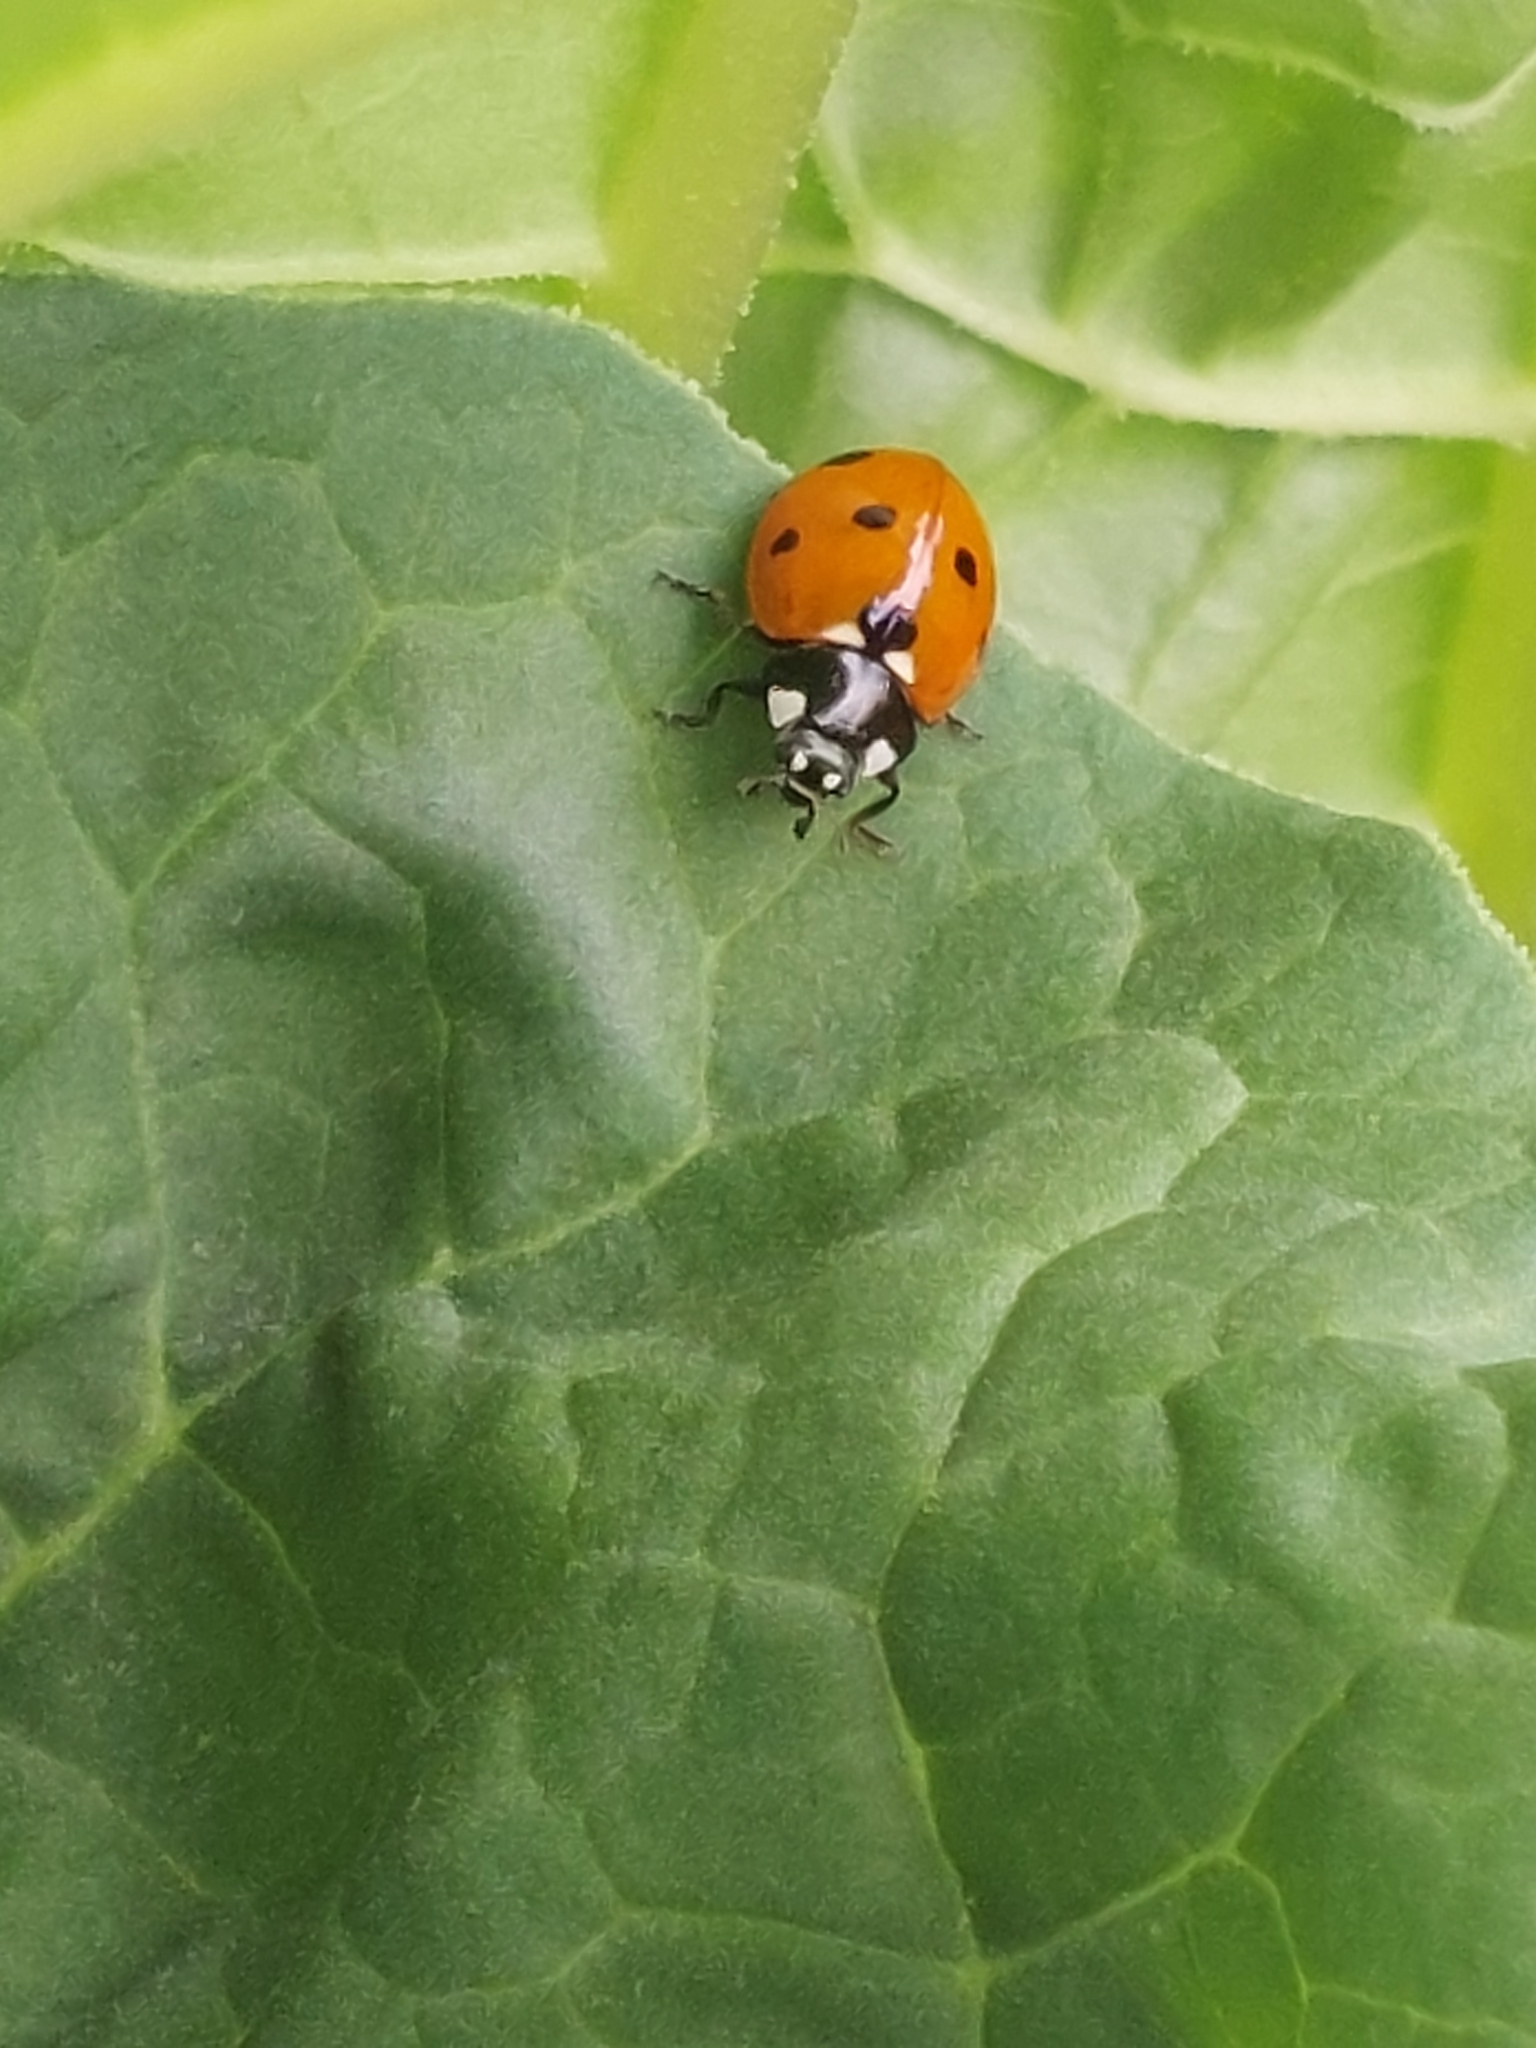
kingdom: Animalia
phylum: Arthropoda
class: Insecta
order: Coleoptera
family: Coccinellidae
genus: Coccinella
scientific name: Coccinella septempunctata
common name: Sevenspotted lady beetle
